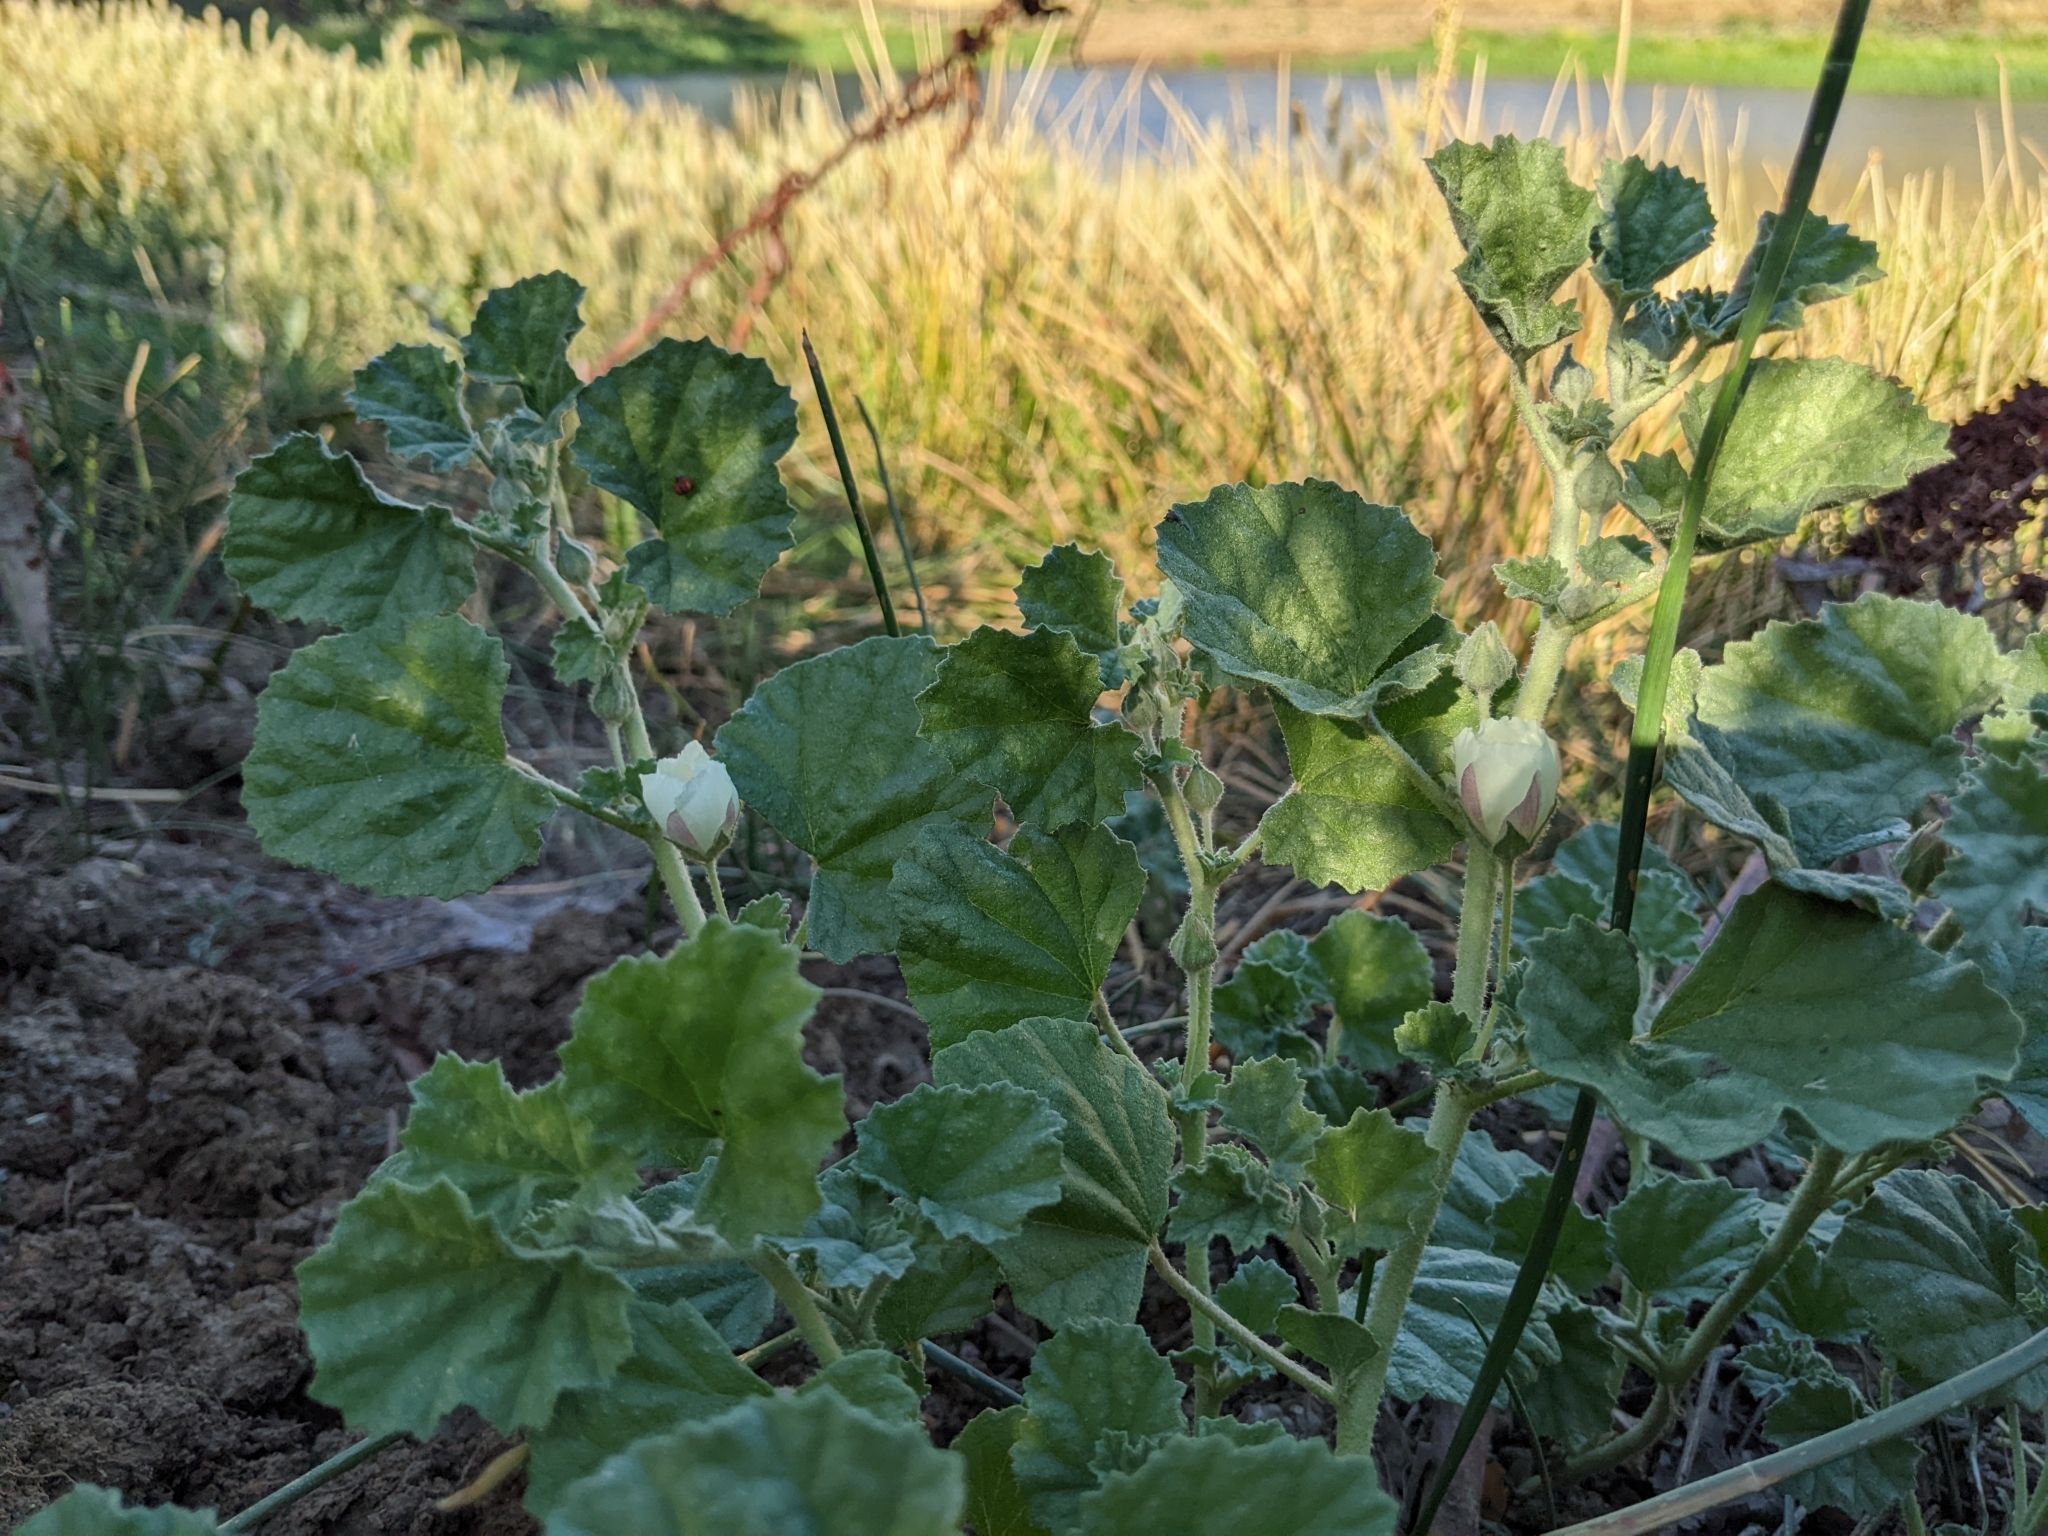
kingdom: Plantae
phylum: Tracheophyta
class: Magnoliopsida
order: Malvales
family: Malvaceae
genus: Malvella
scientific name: Malvella leprosa
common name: Alkali-mallow
